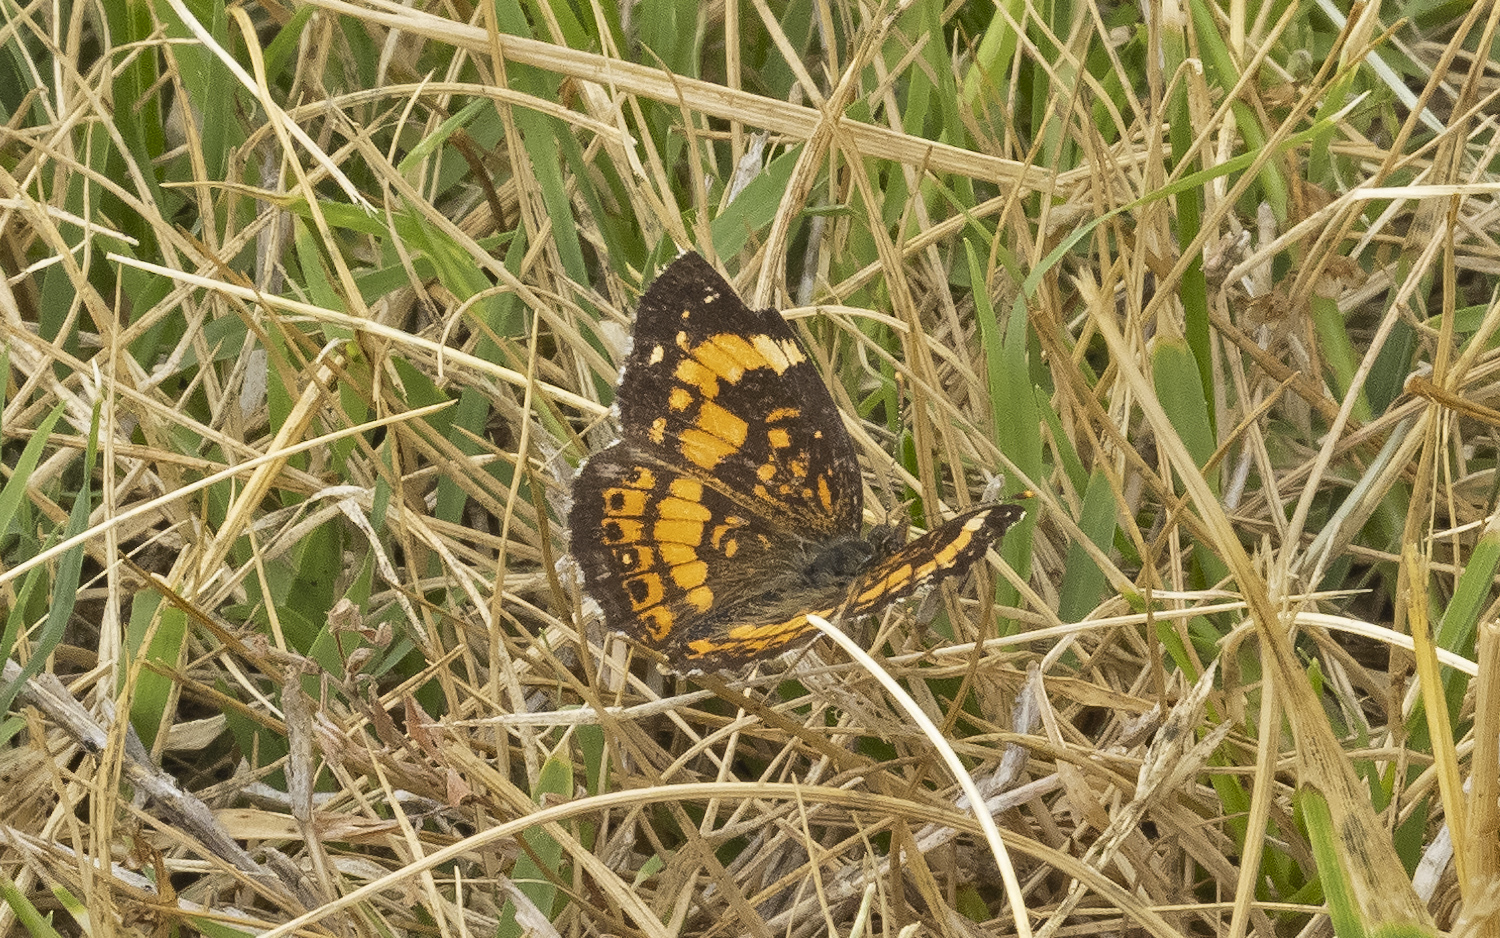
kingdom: Animalia
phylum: Arthropoda
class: Insecta
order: Lepidoptera
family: Nymphalidae
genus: Chlosyne
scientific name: Chlosyne nycteis
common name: Silvery checkerspot
